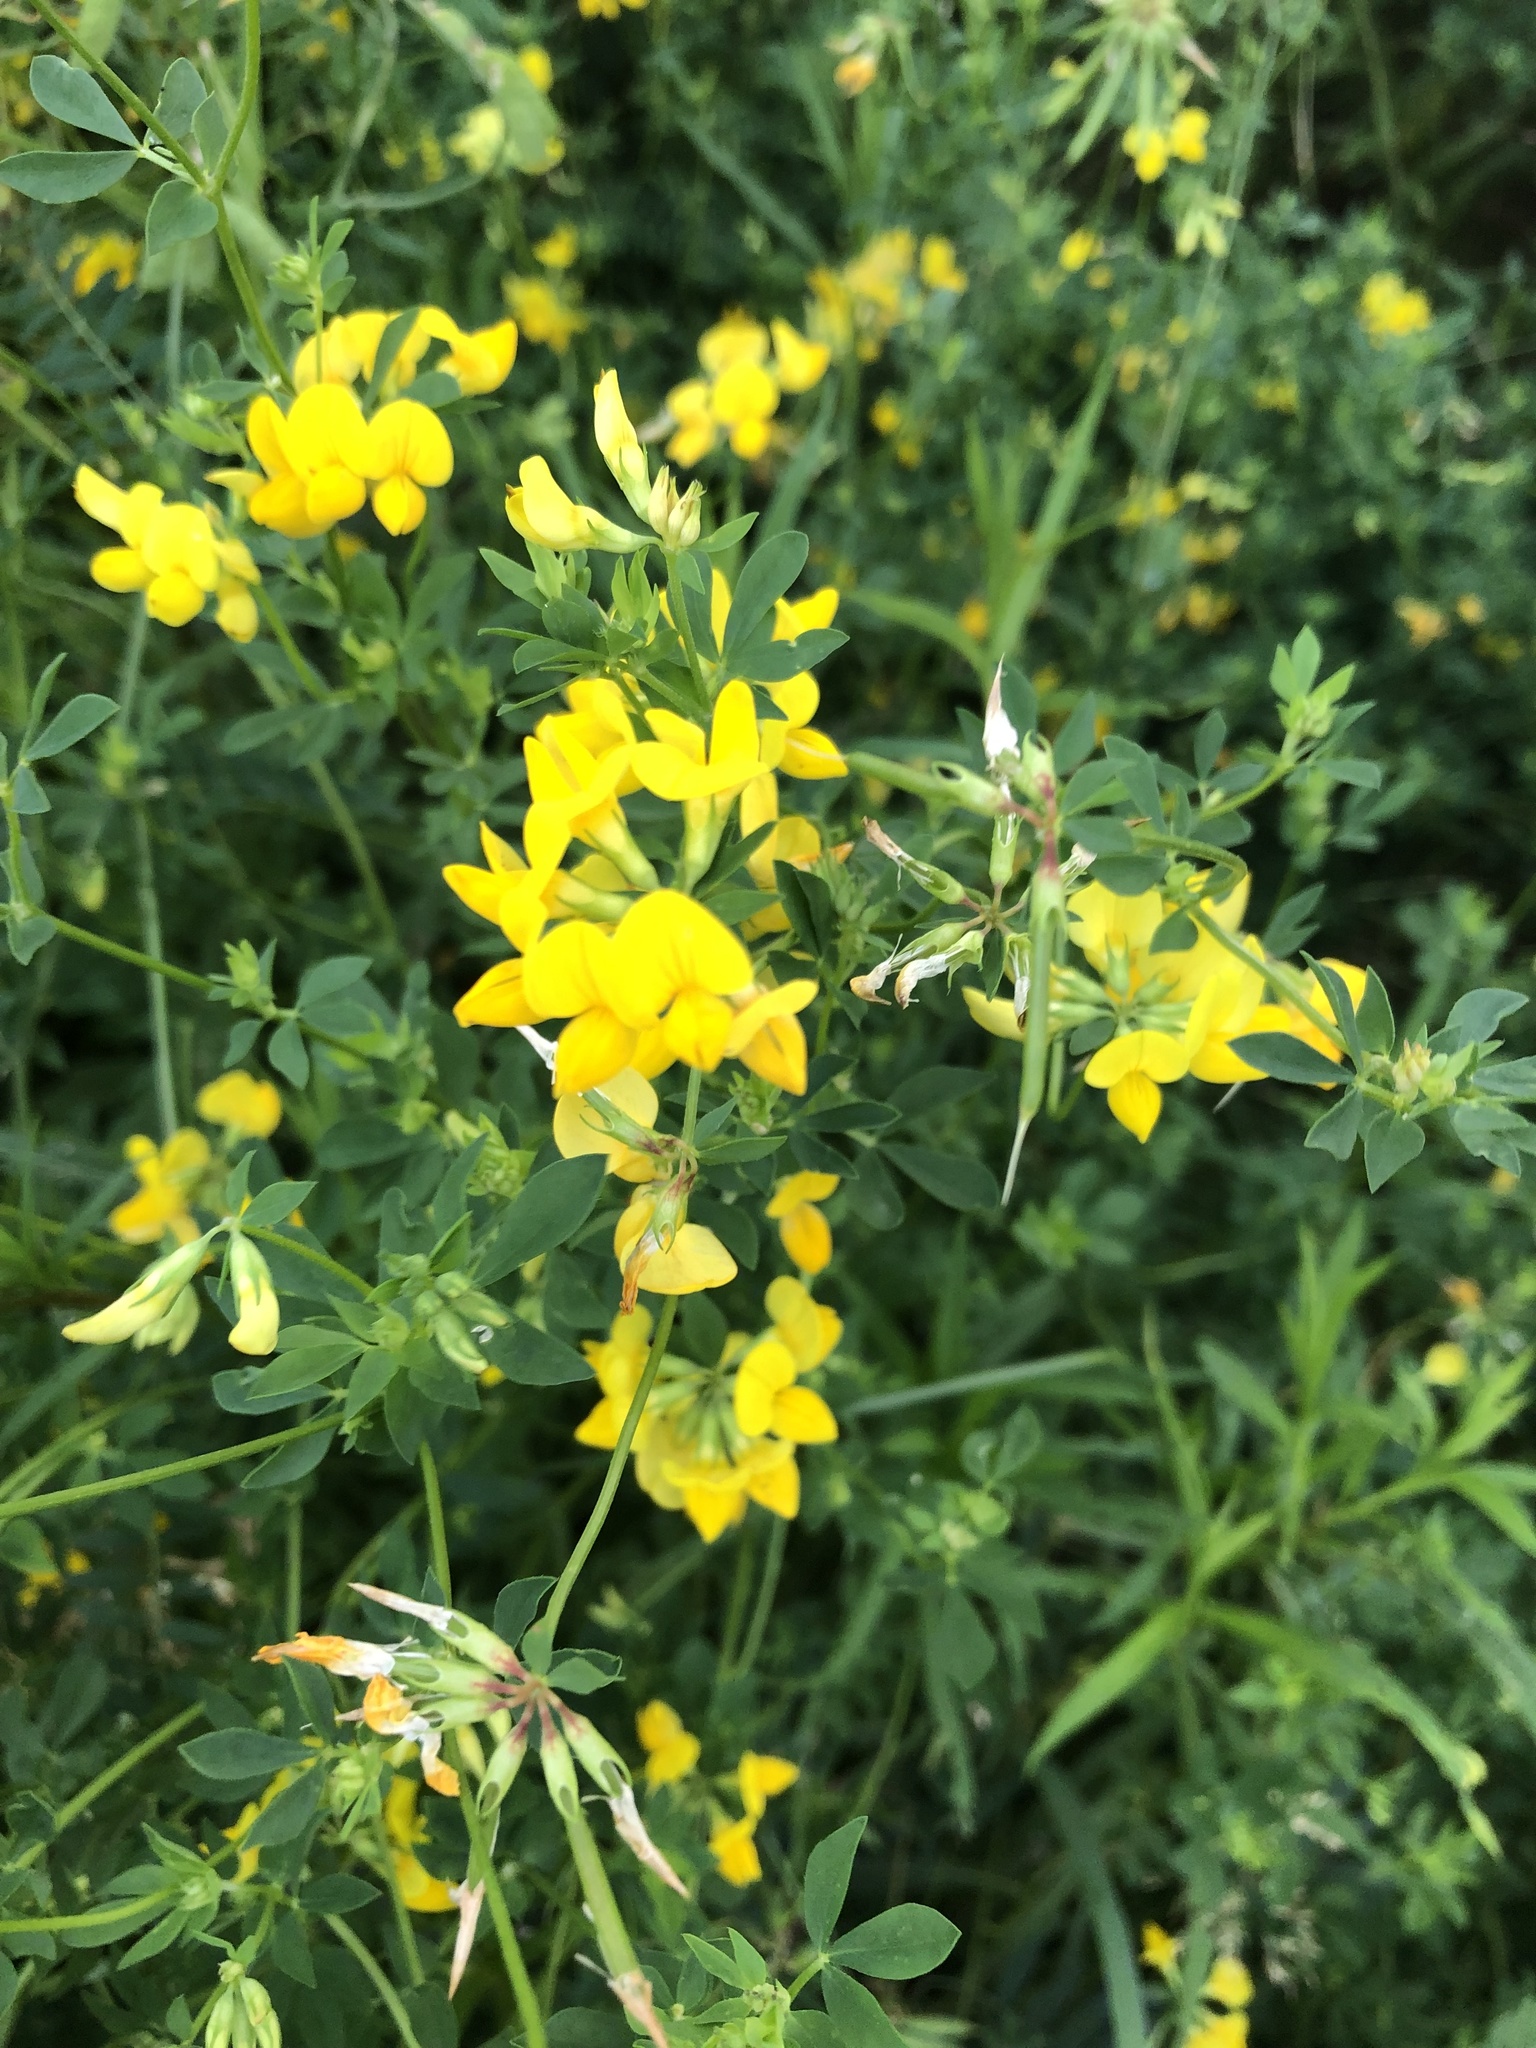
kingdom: Plantae
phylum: Tracheophyta
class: Magnoliopsida
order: Fabales
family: Fabaceae
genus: Lotus
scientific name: Lotus corniculatus
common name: Common bird's-foot-trefoil
